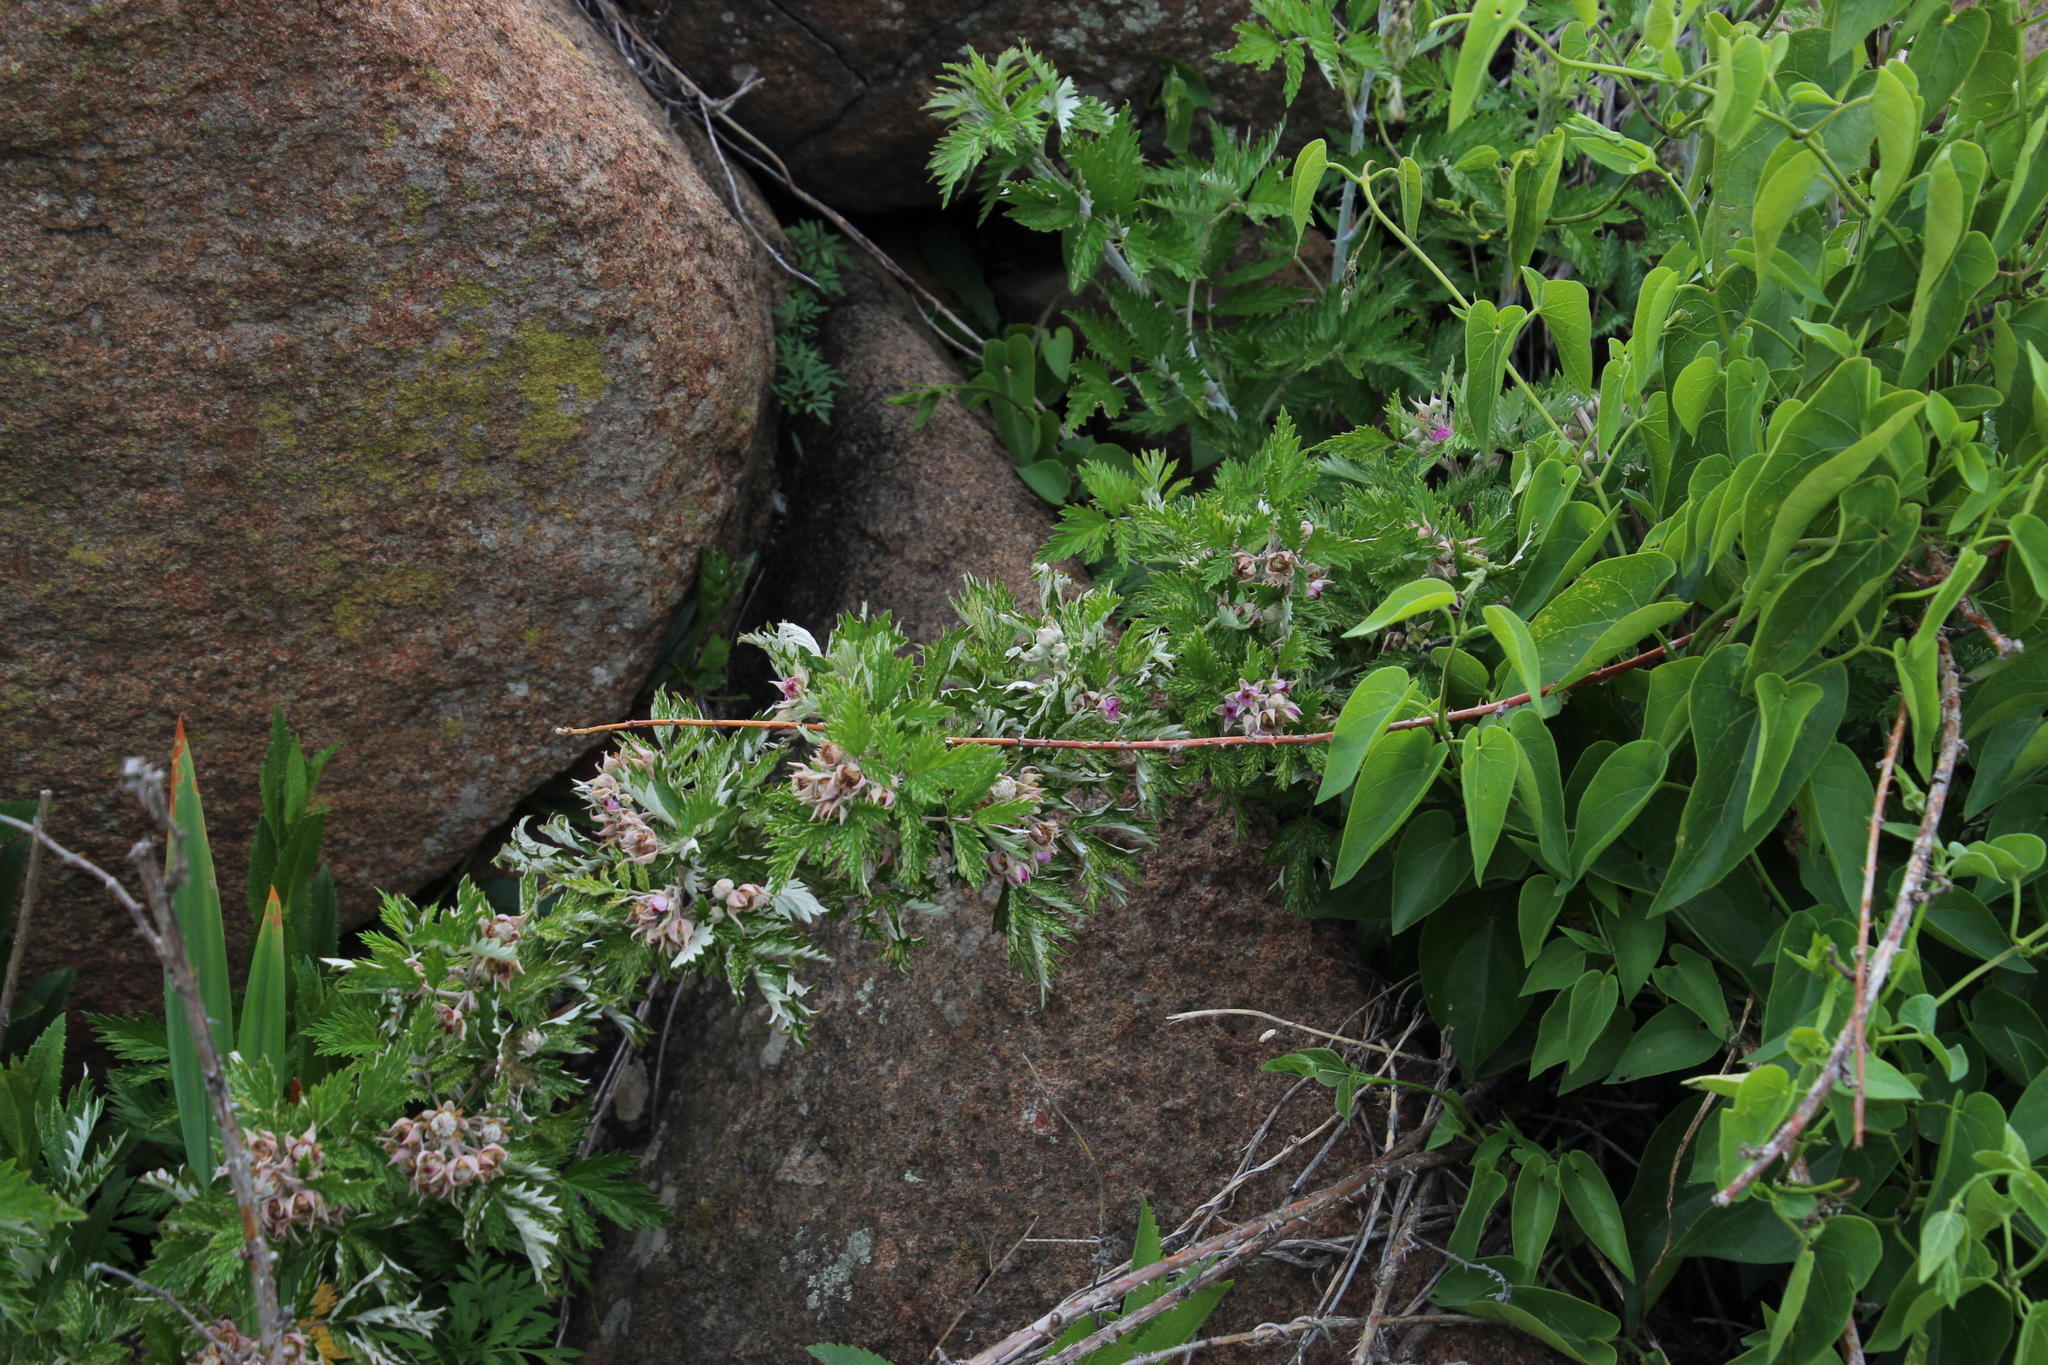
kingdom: Plantae
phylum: Tracheophyta
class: Magnoliopsida
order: Rosales
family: Rosaceae
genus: Rubus
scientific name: Rubus ludwigii
